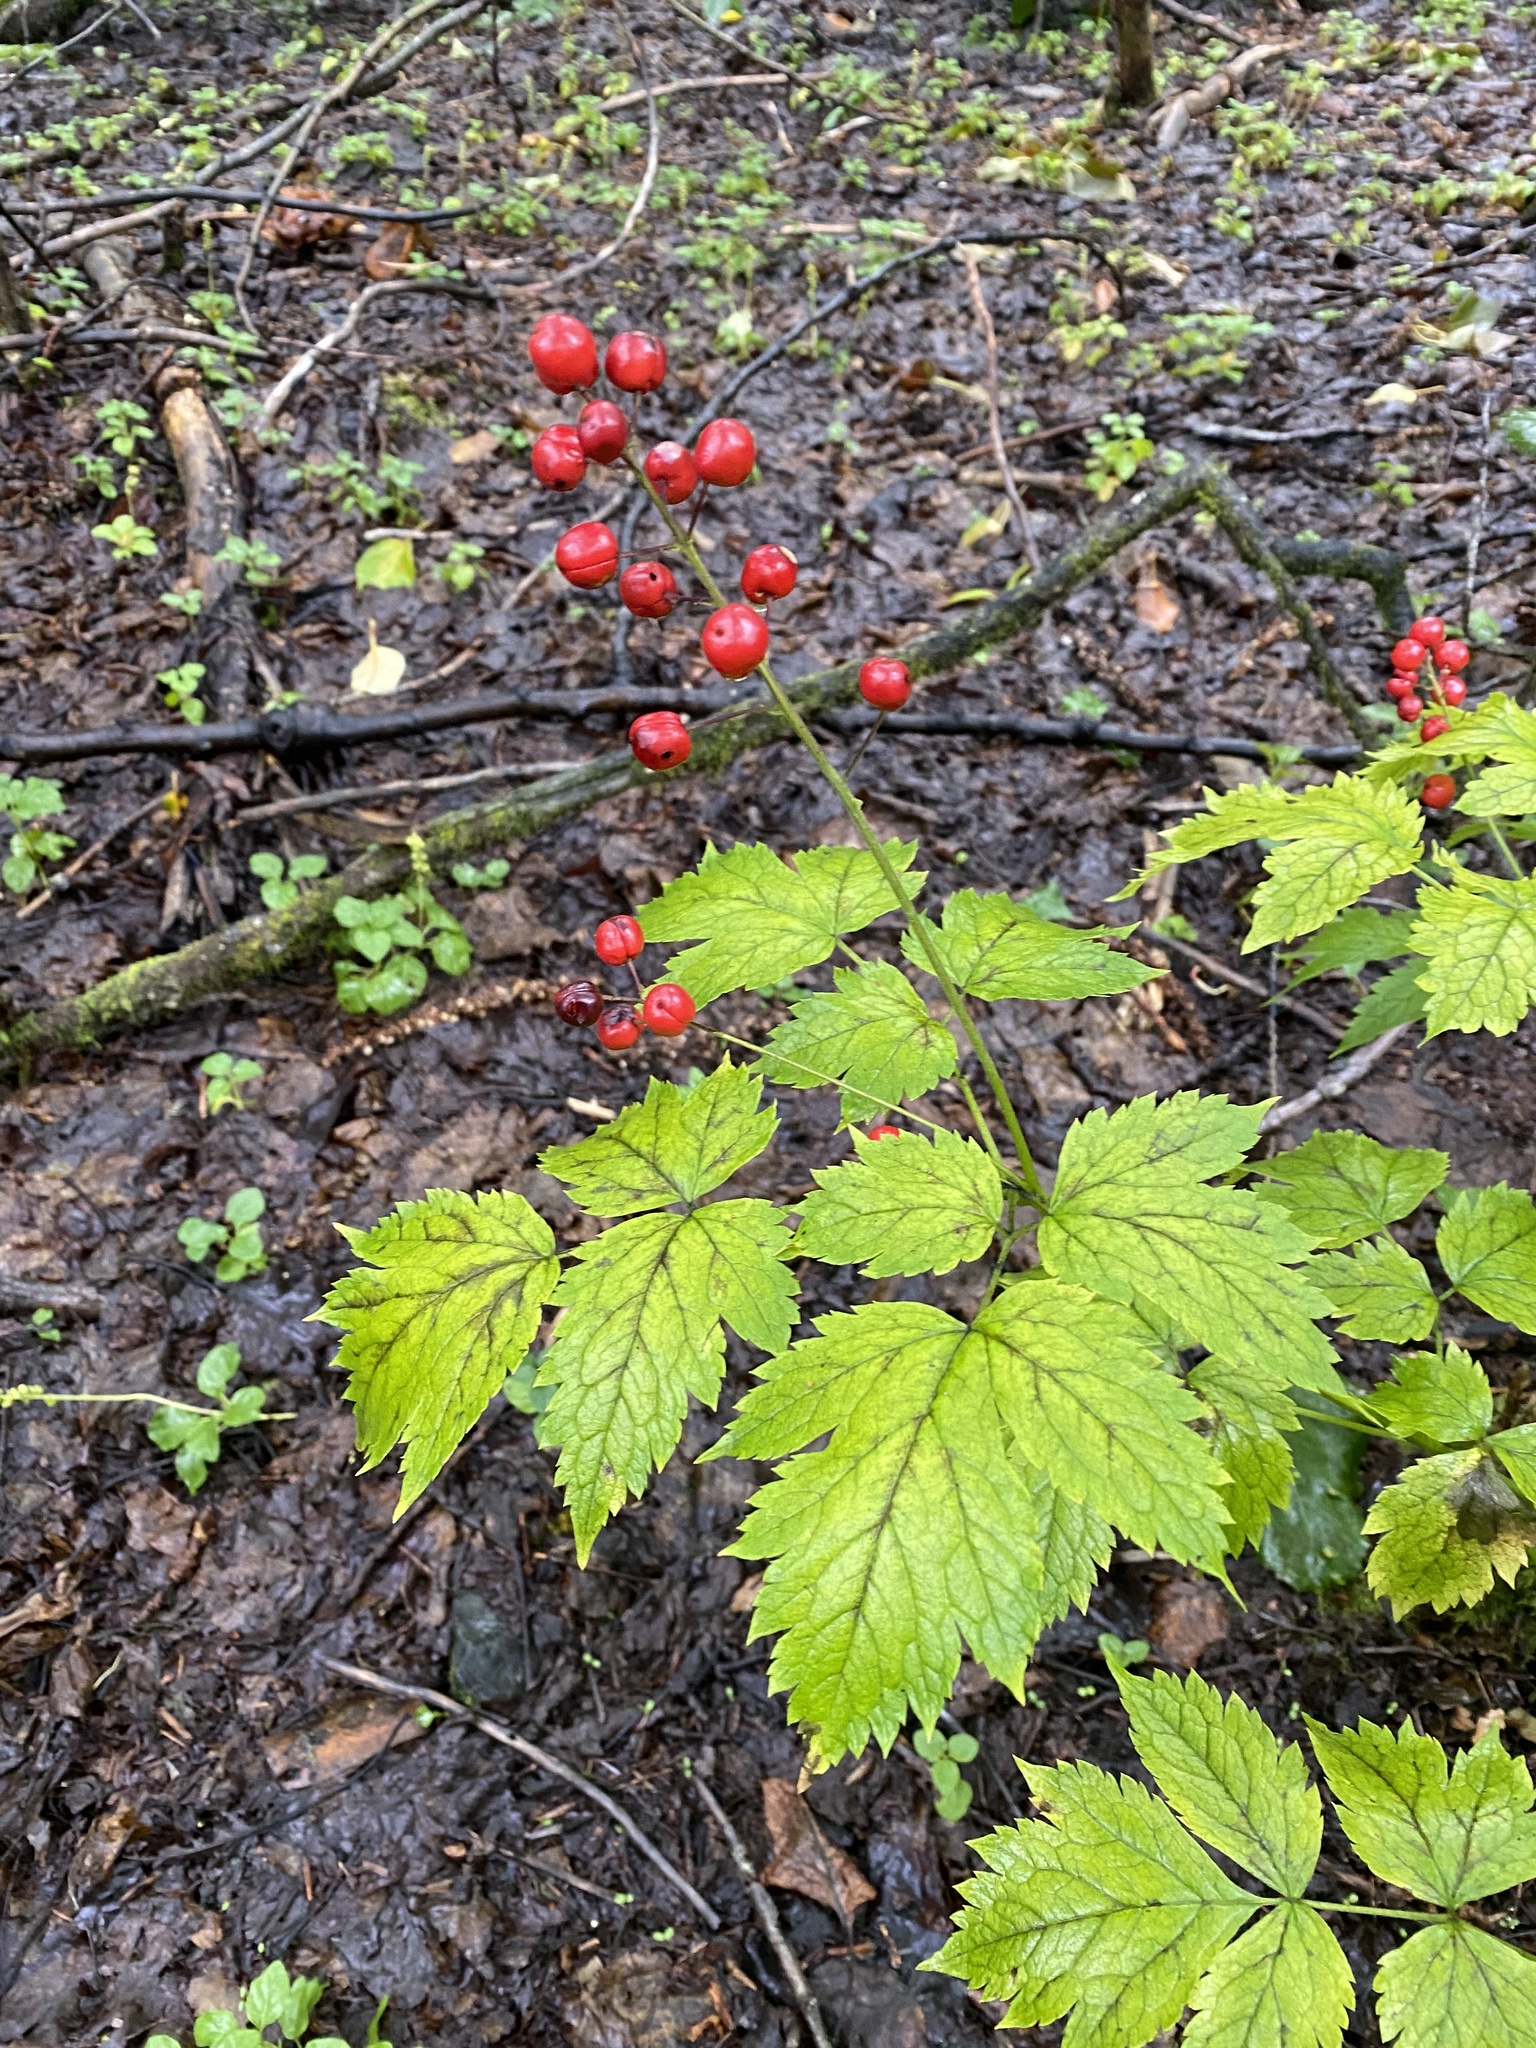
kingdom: Plantae
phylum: Tracheophyta
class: Magnoliopsida
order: Ranunculales
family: Ranunculaceae
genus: Actaea
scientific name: Actaea rubra
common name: Red baneberry
